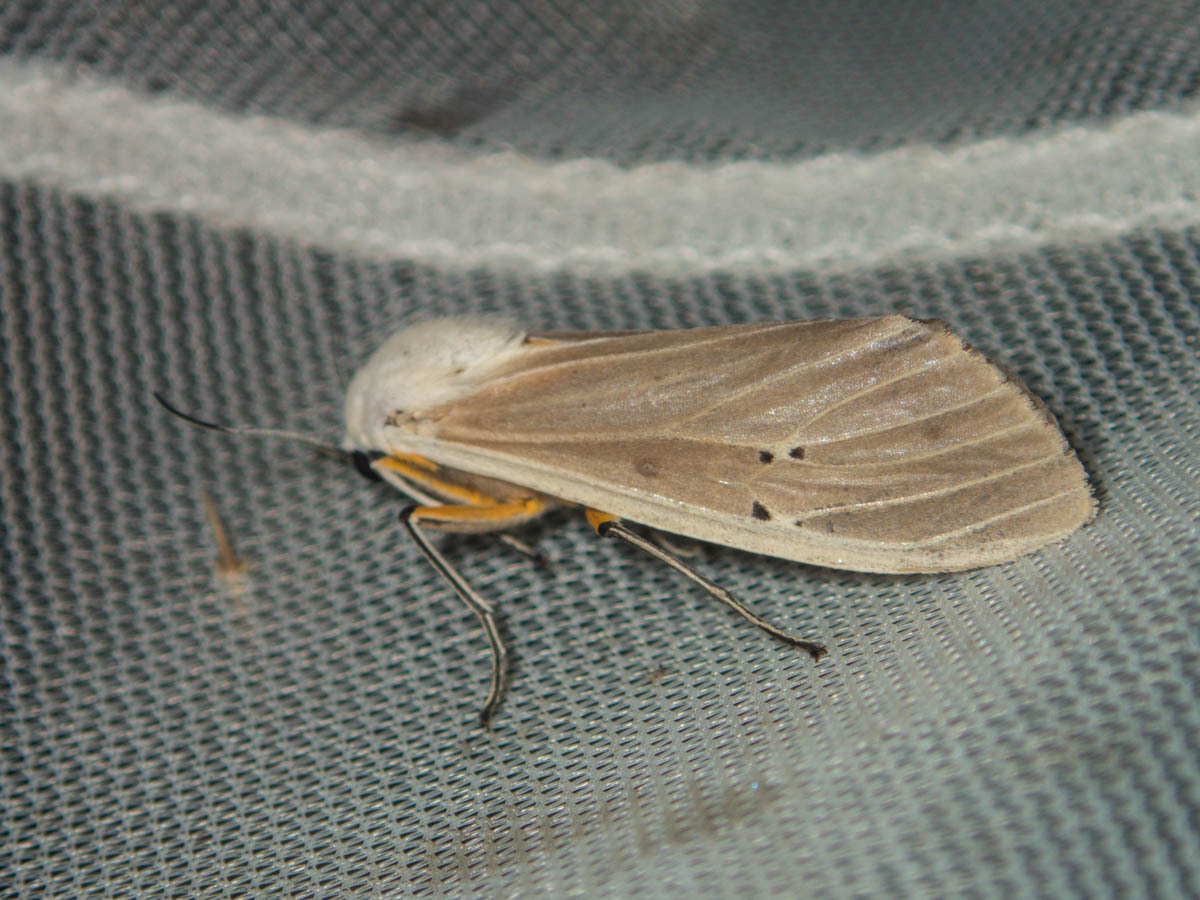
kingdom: Animalia
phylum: Arthropoda
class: Insecta
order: Lepidoptera
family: Erebidae
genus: Creatonotos
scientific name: Creatonotos transiens
